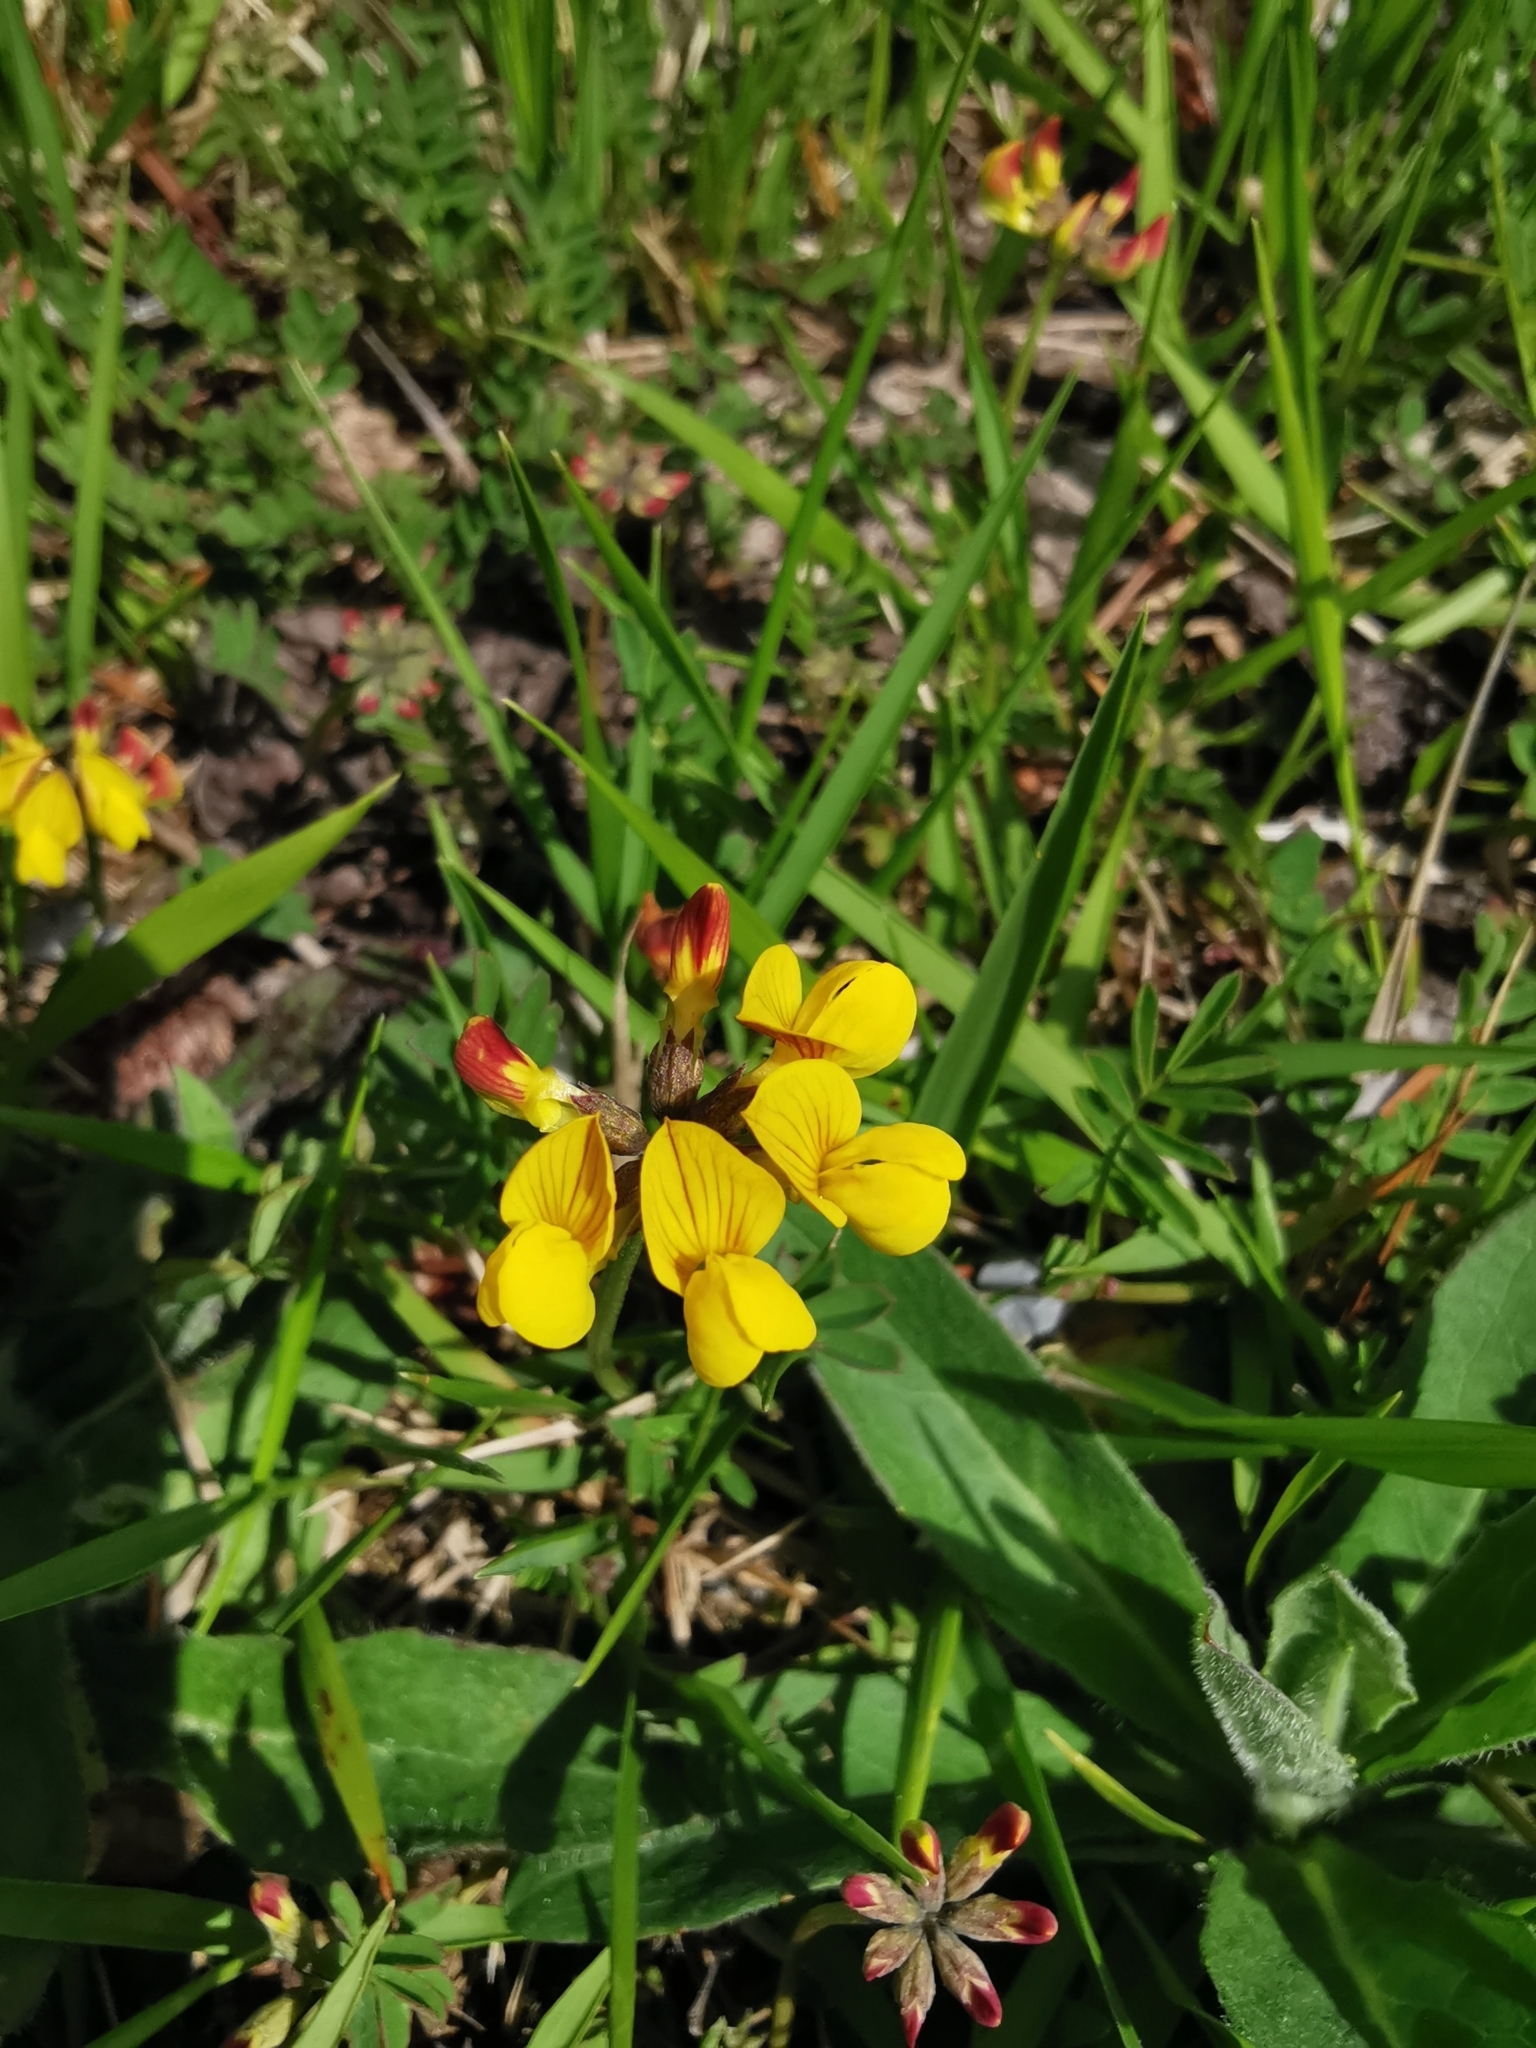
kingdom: Plantae
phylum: Tracheophyta
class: Magnoliopsida
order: Fabales
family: Fabaceae
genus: Hippocrepis
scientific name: Hippocrepis comosa
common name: Horseshoe vetch
